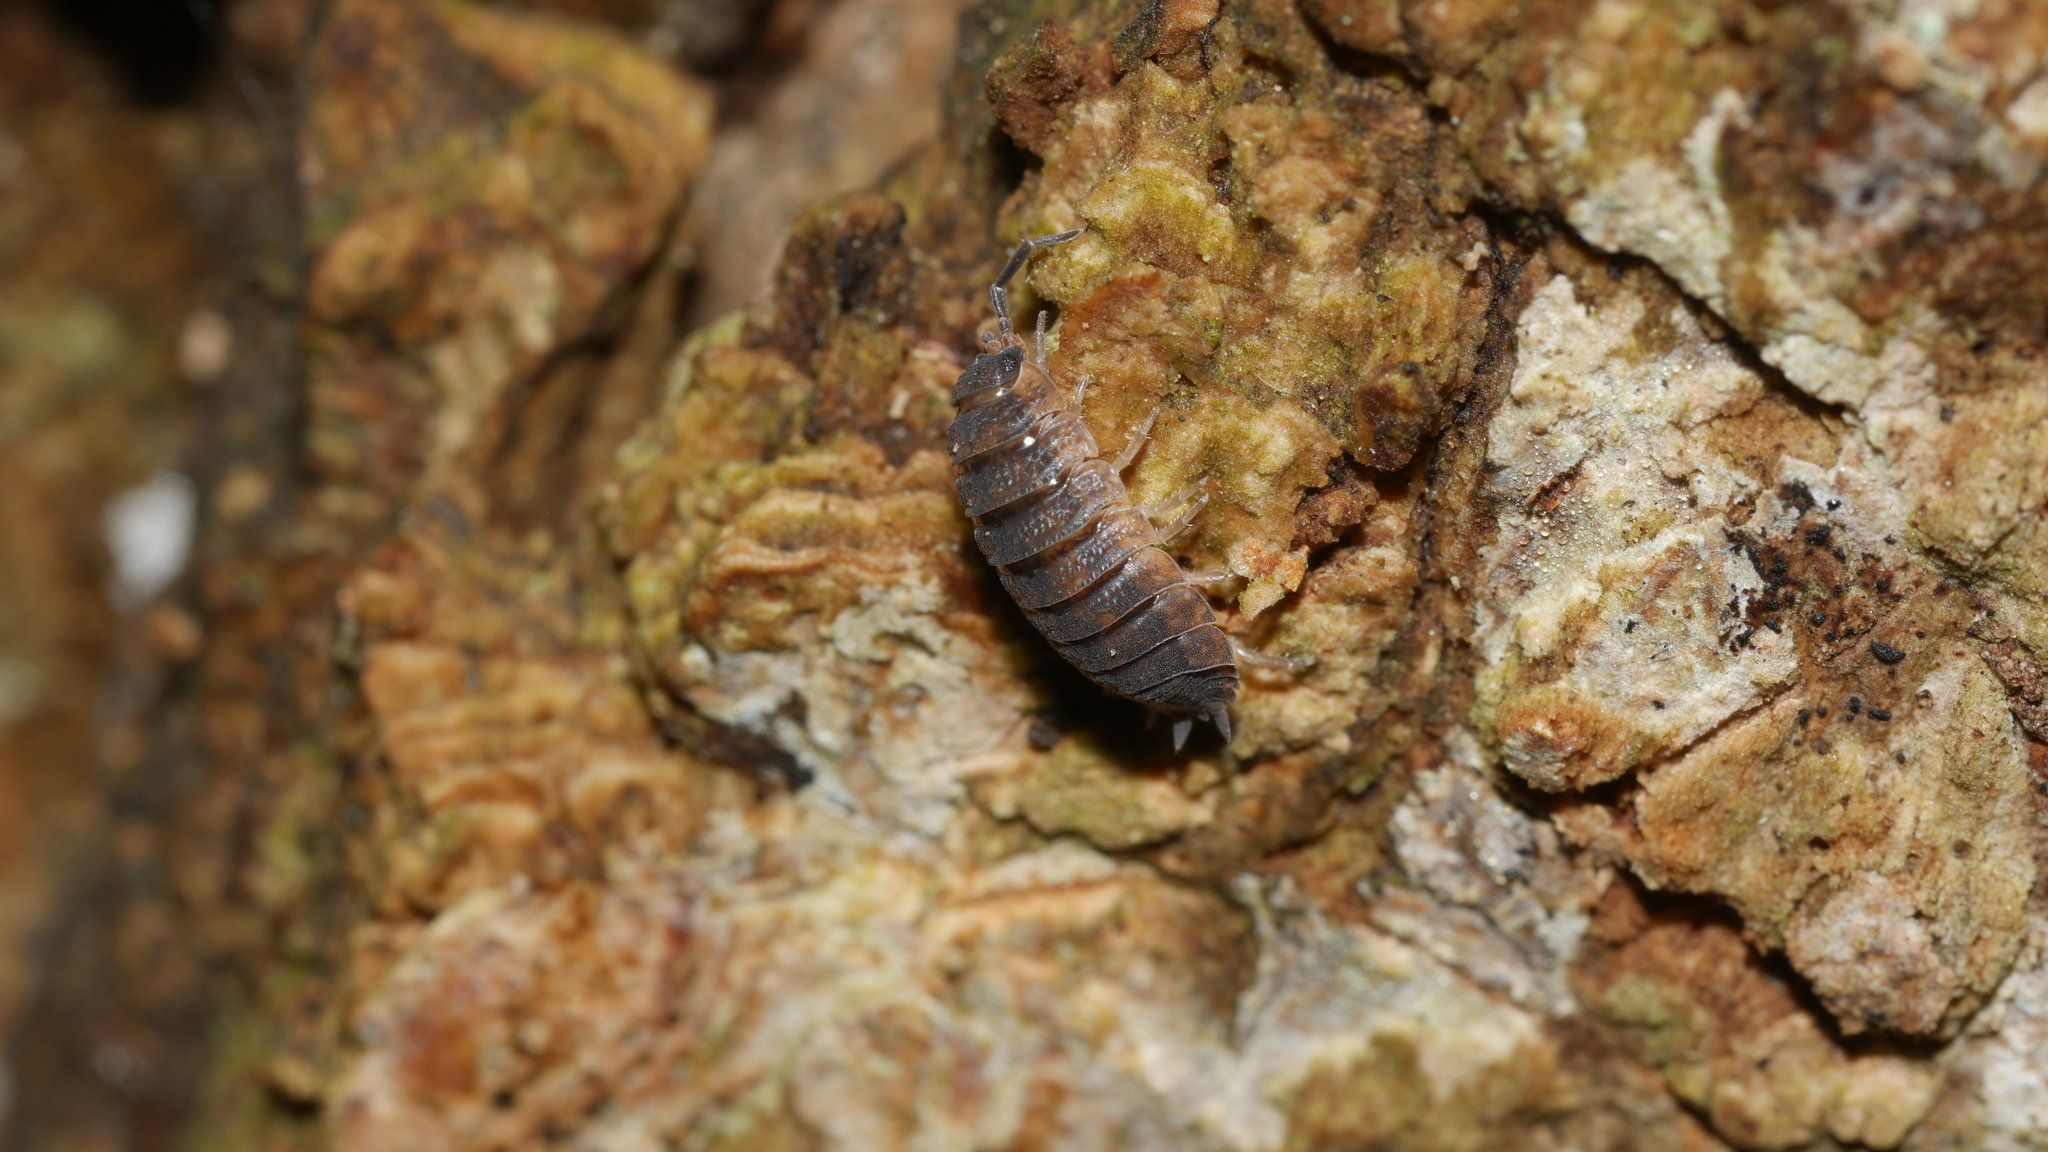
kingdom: Animalia
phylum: Arthropoda
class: Malacostraca
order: Isopoda
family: Porcellionidae
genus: Porcellio
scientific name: Porcellio scaber
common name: Common rough woodlouse
